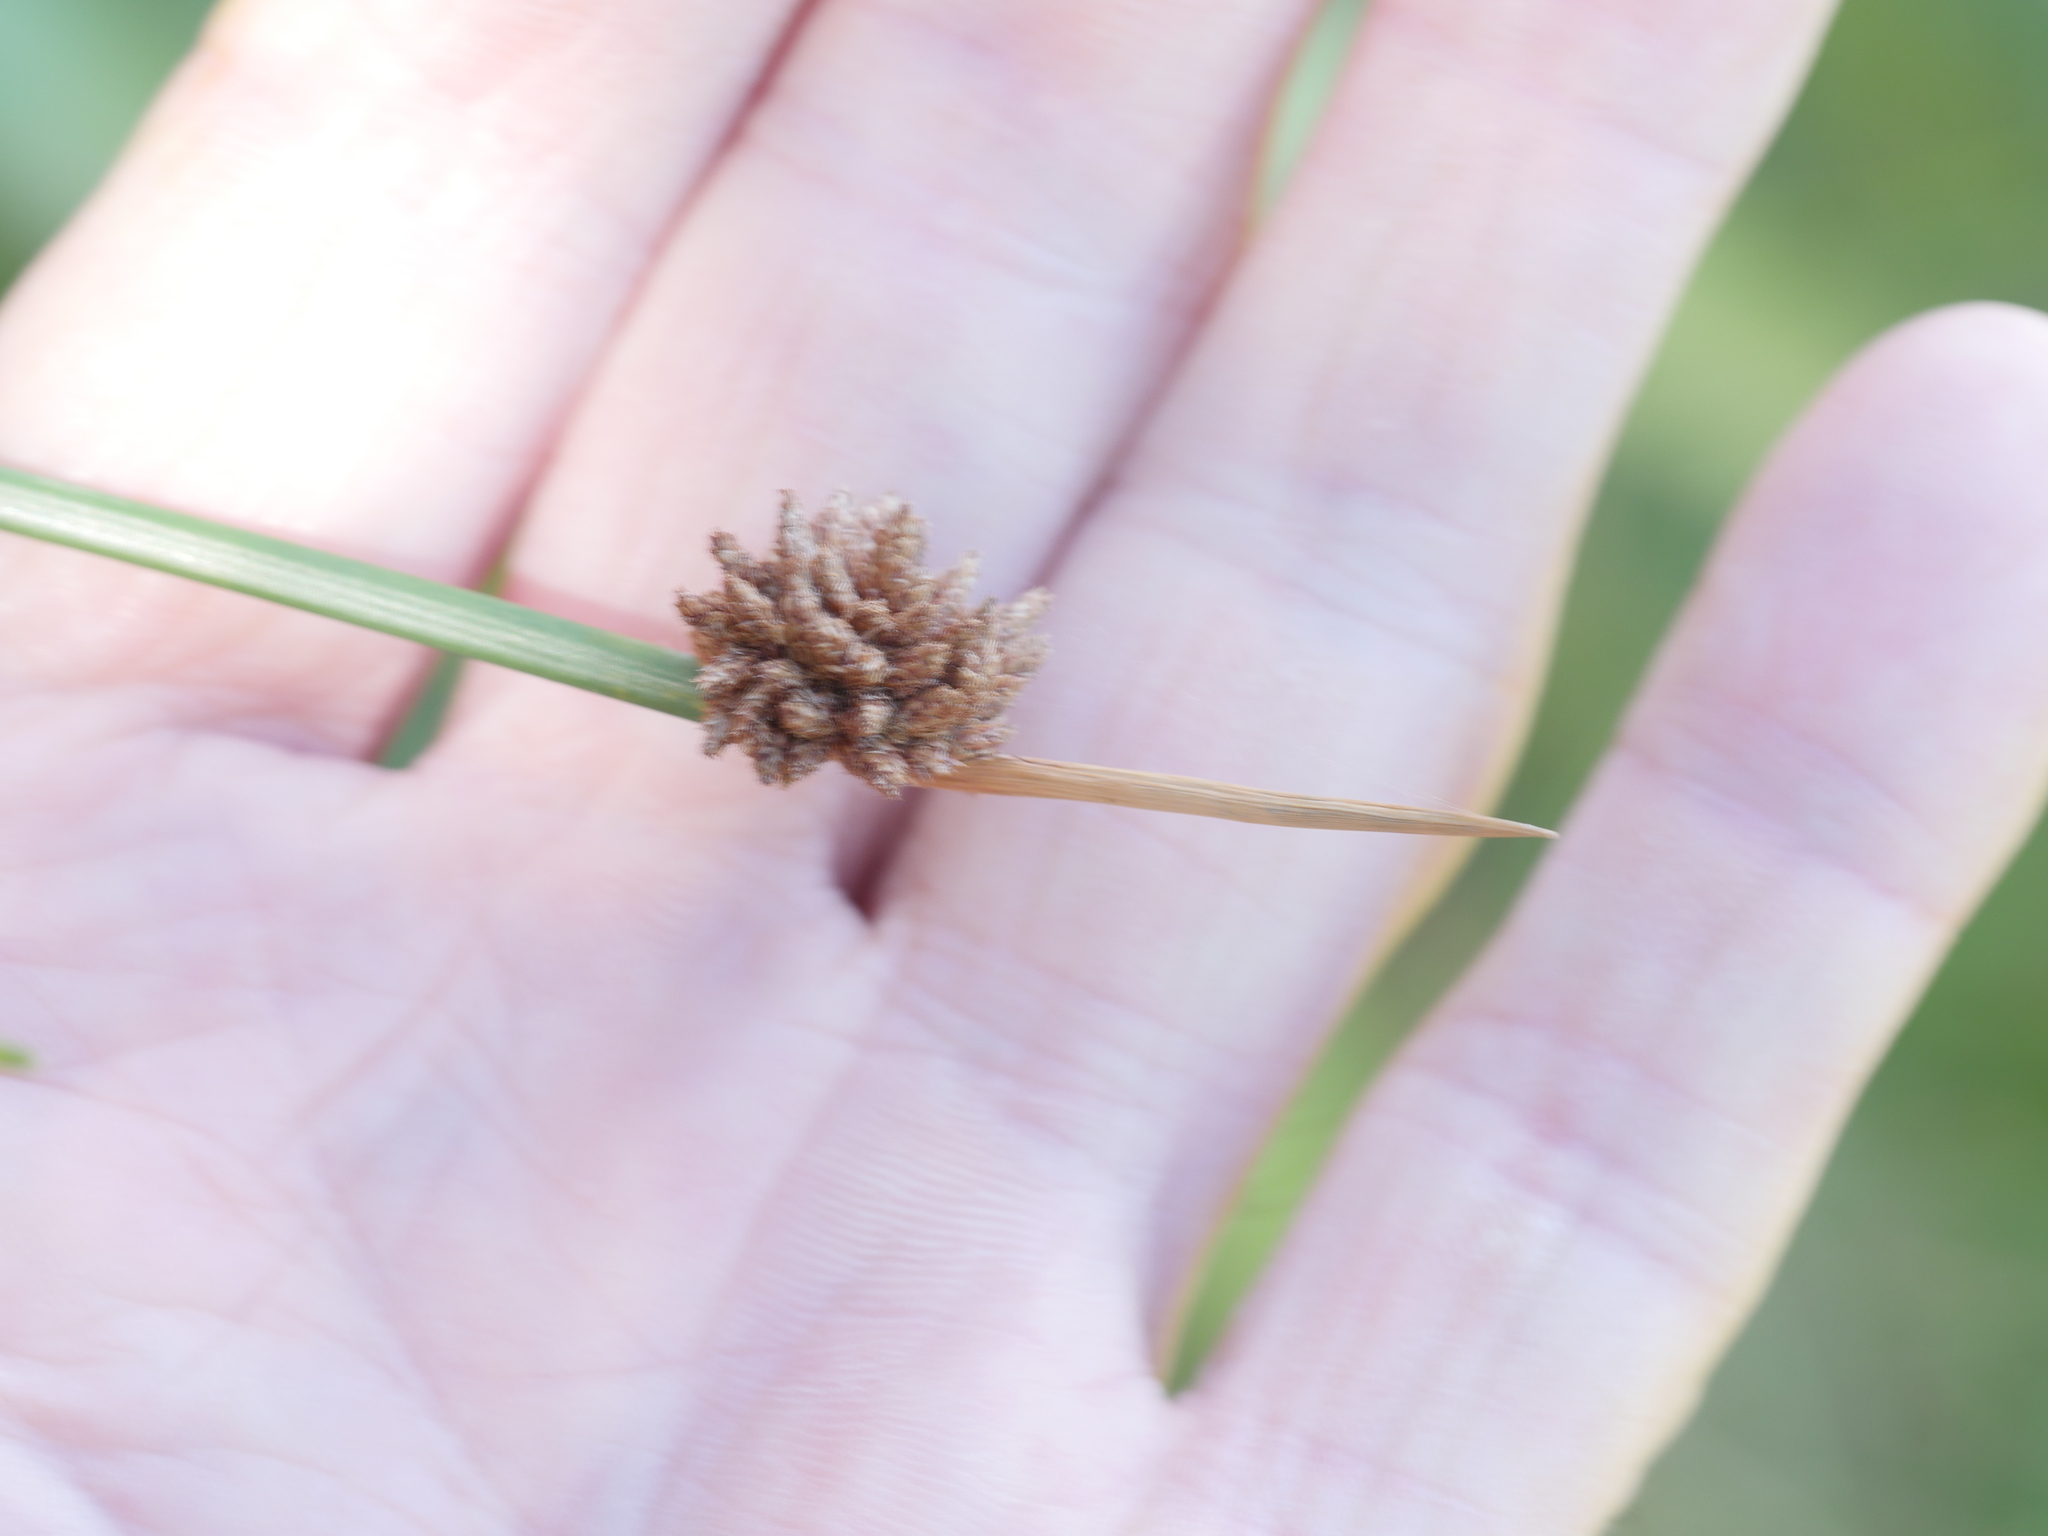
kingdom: Plantae
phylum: Tracheophyta
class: Liliopsida
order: Poales
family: Cyperaceae
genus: Ficinia
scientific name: Ficinia nodosa
